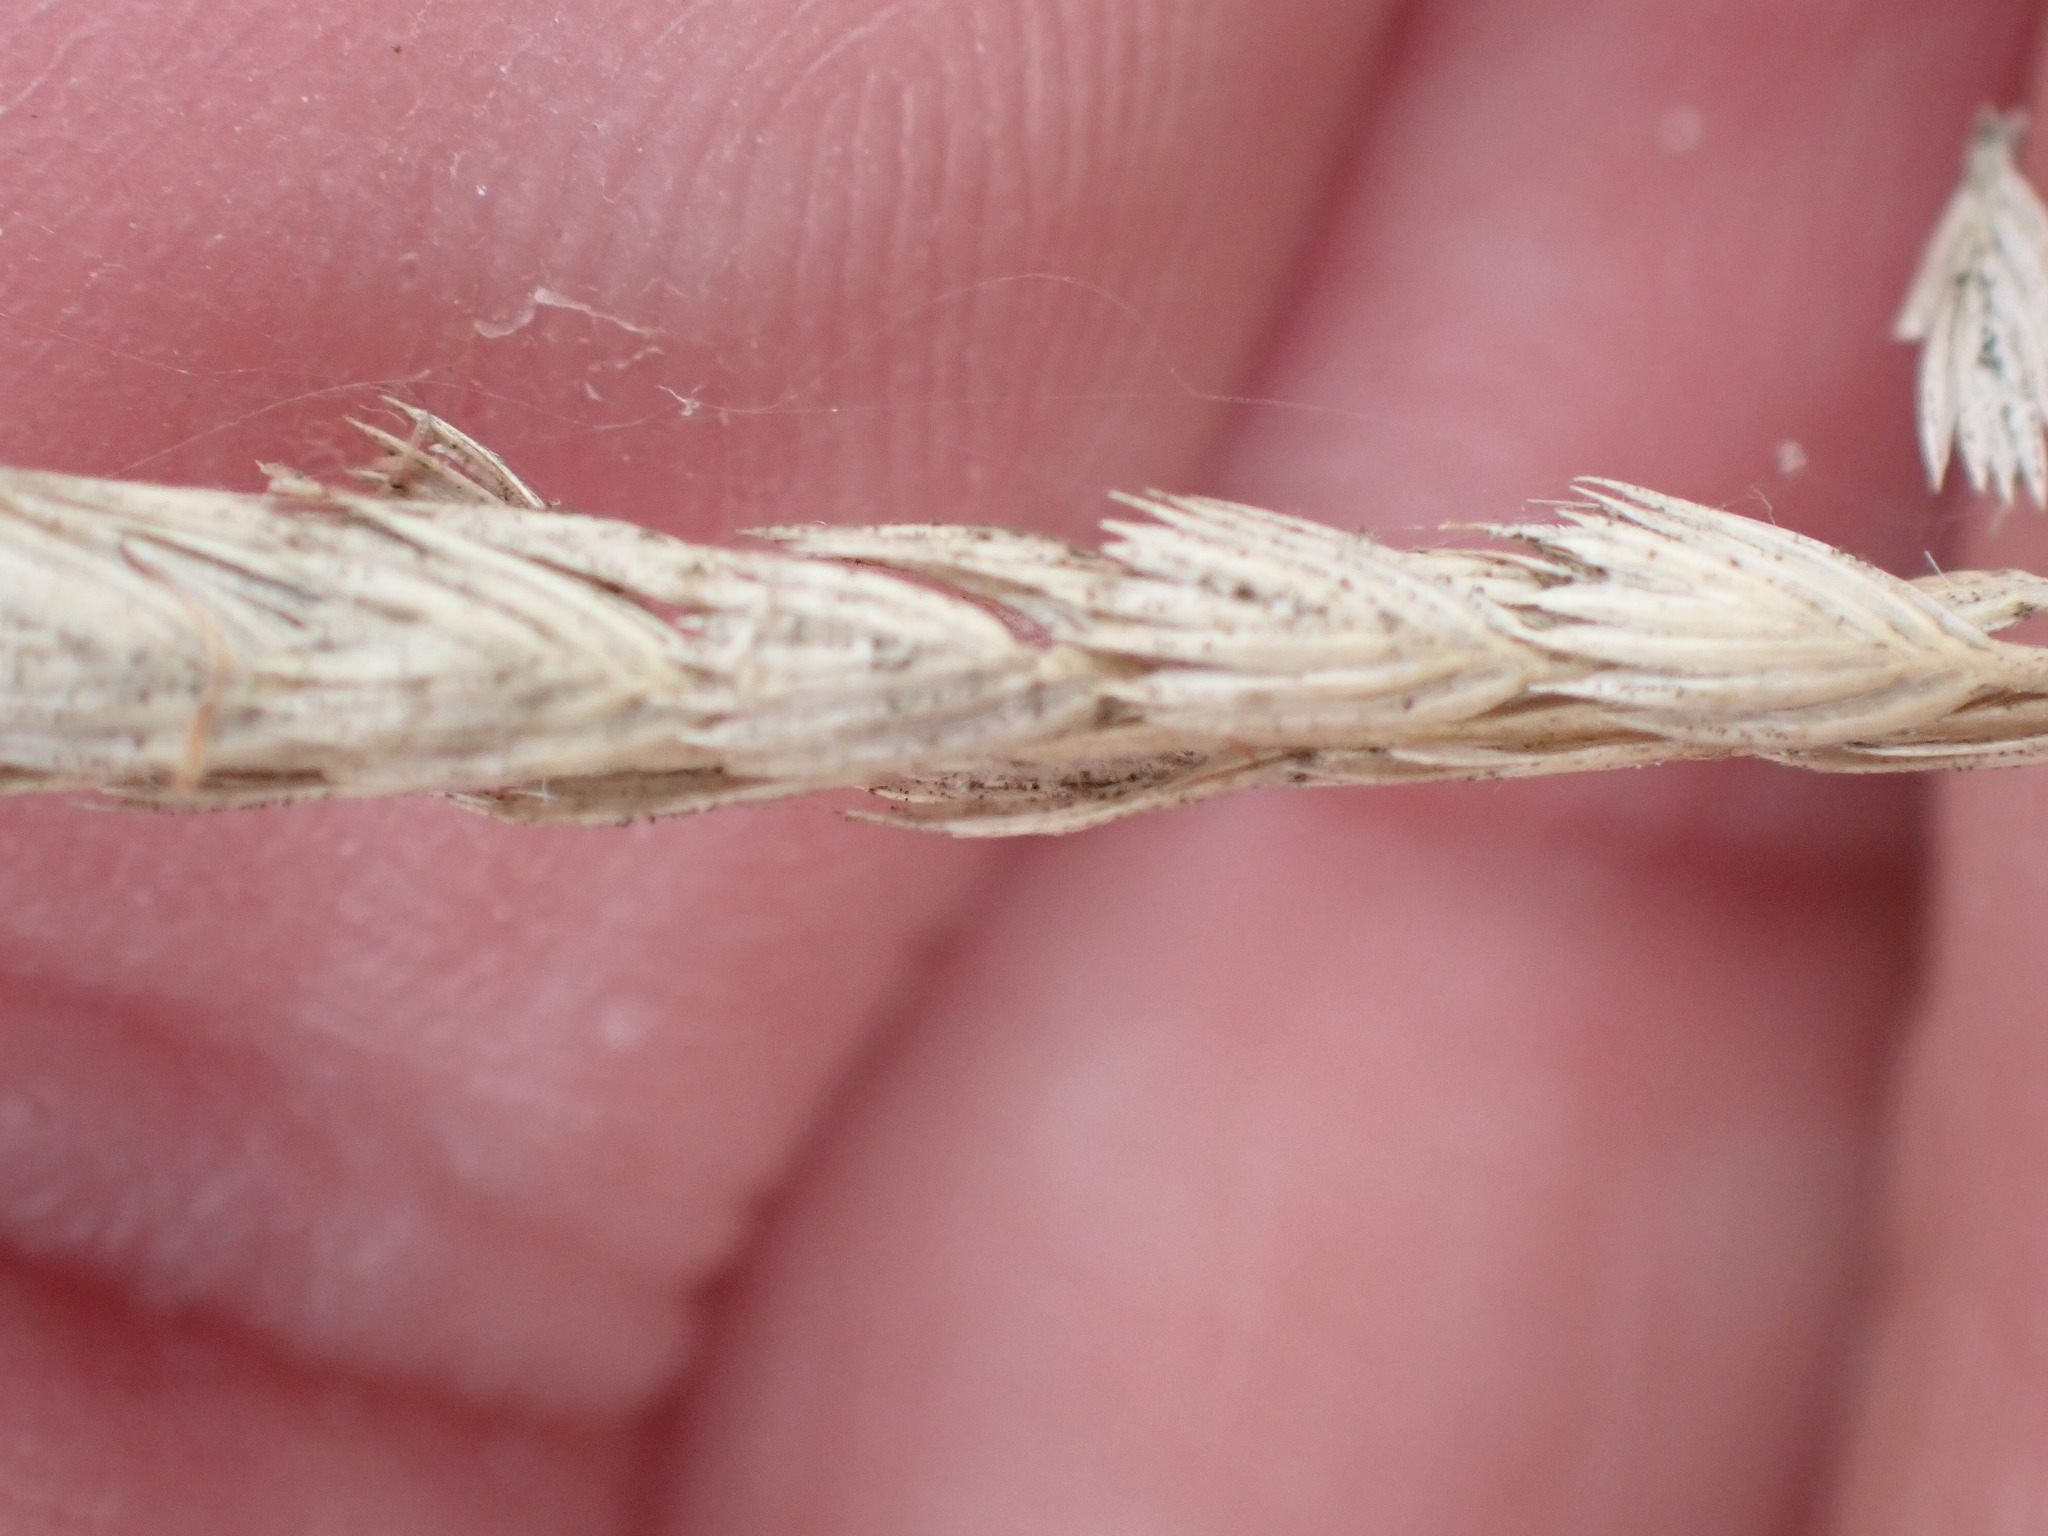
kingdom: Plantae
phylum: Tracheophyta
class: Liliopsida
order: Poales
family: Poaceae
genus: Cynosurus
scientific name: Cynosurus cristatus
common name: Crested dog's-tail
